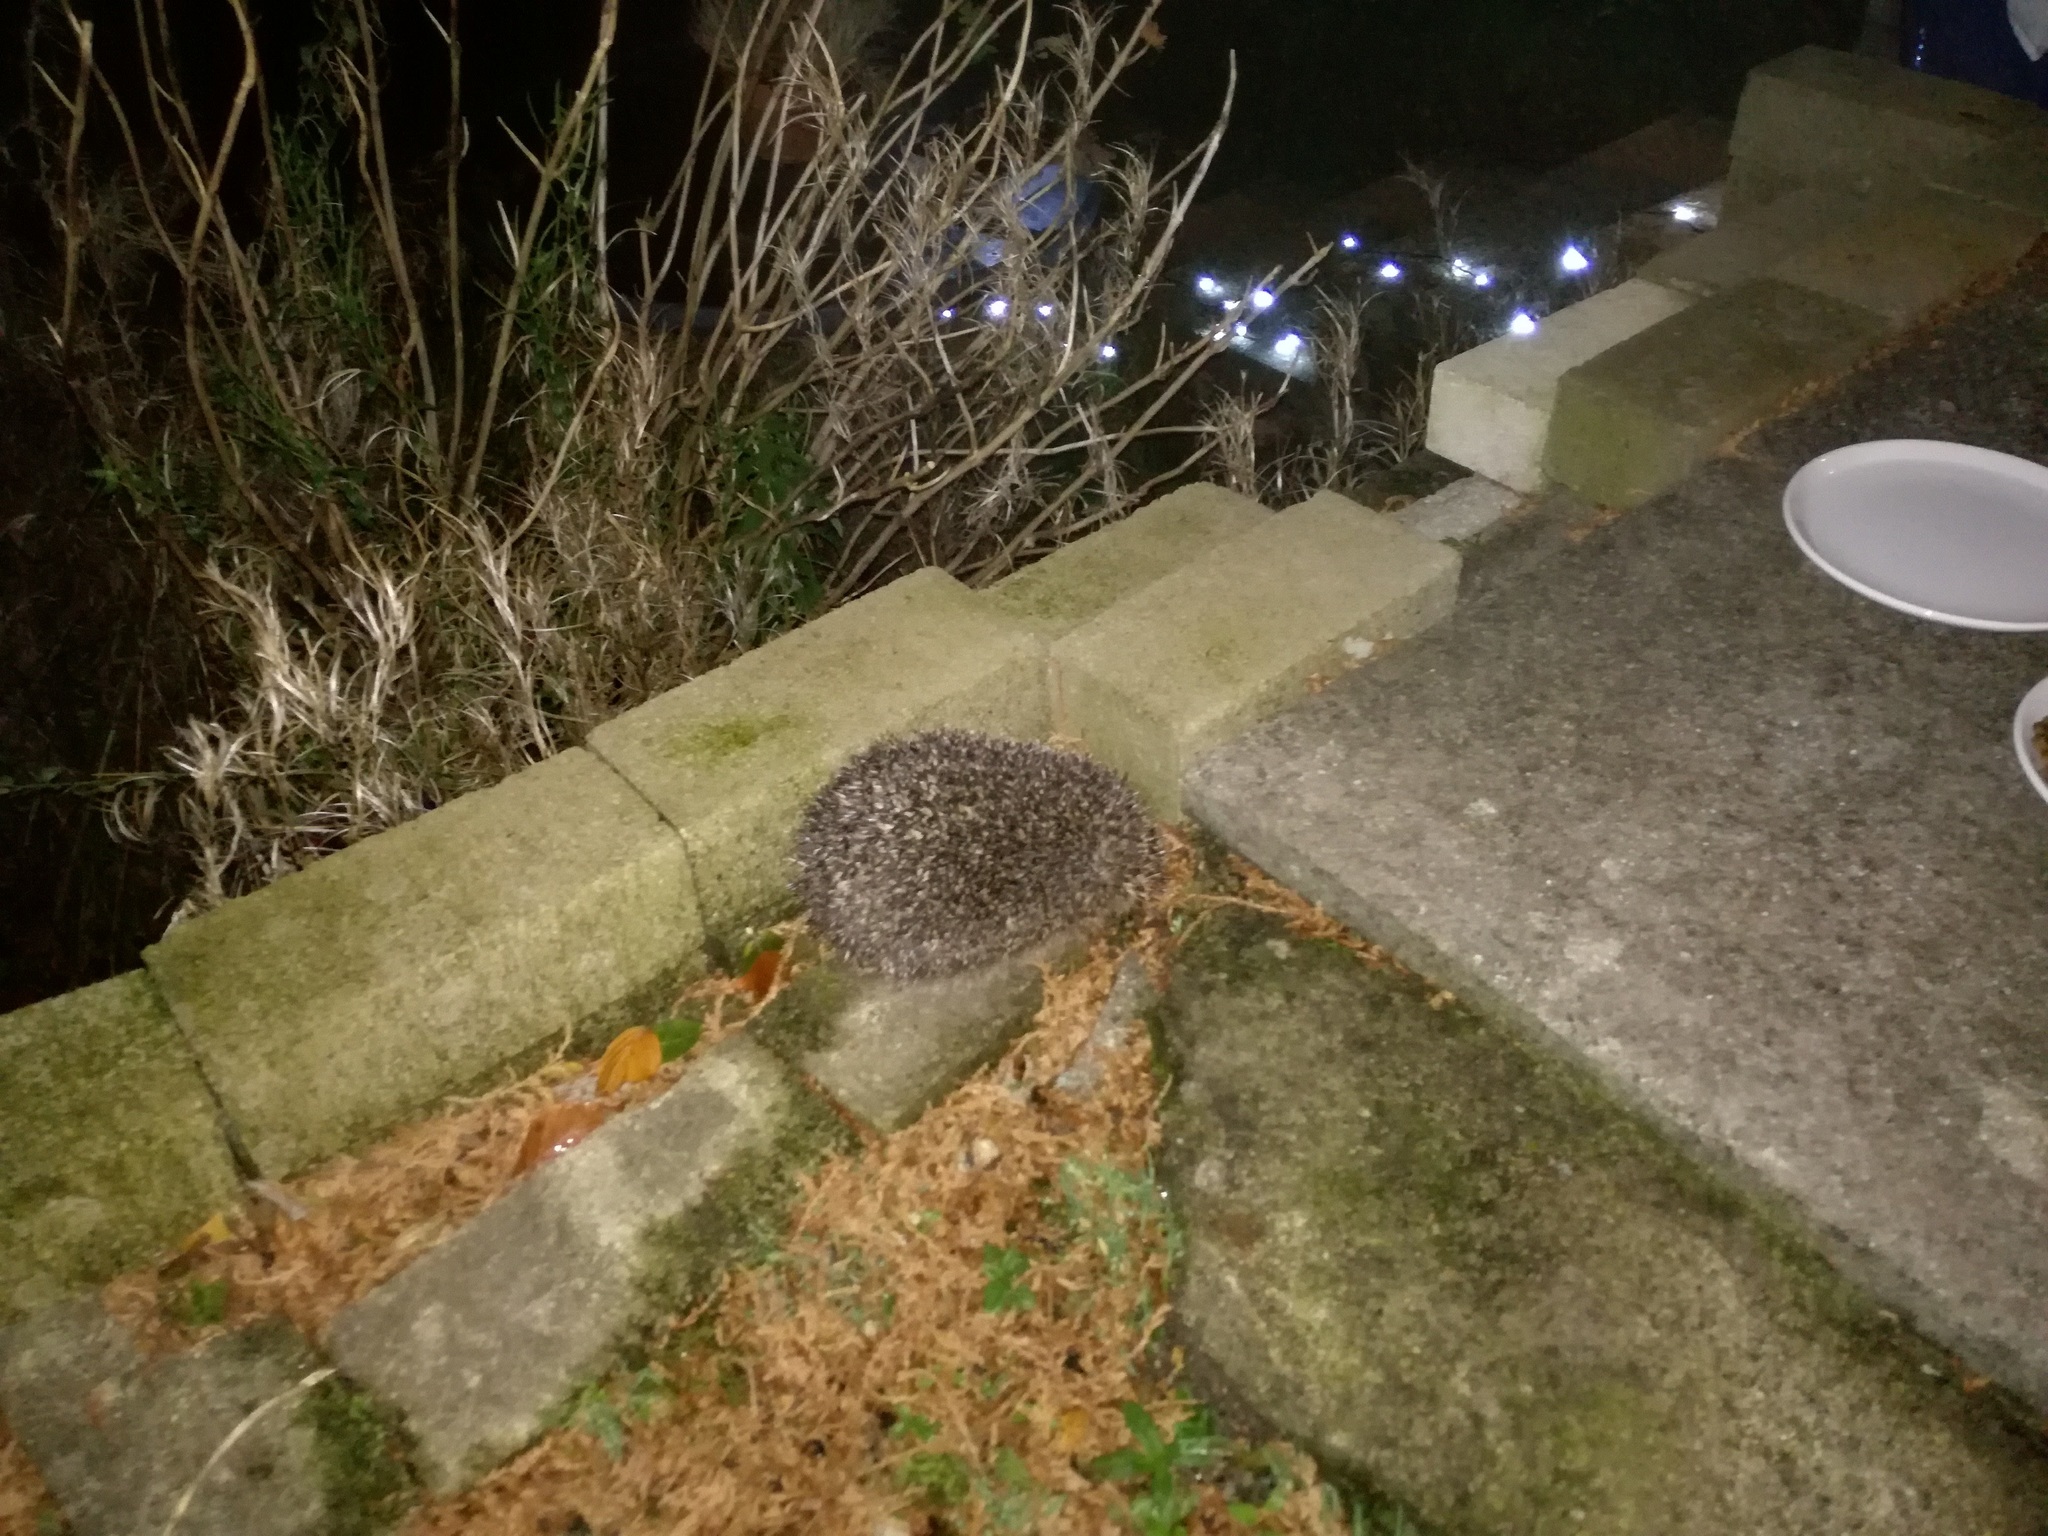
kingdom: Animalia
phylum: Chordata
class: Mammalia
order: Erinaceomorpha
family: Erinaceidae
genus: Erinaceus
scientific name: Erinaceus europaeus
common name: West european hedgehog
